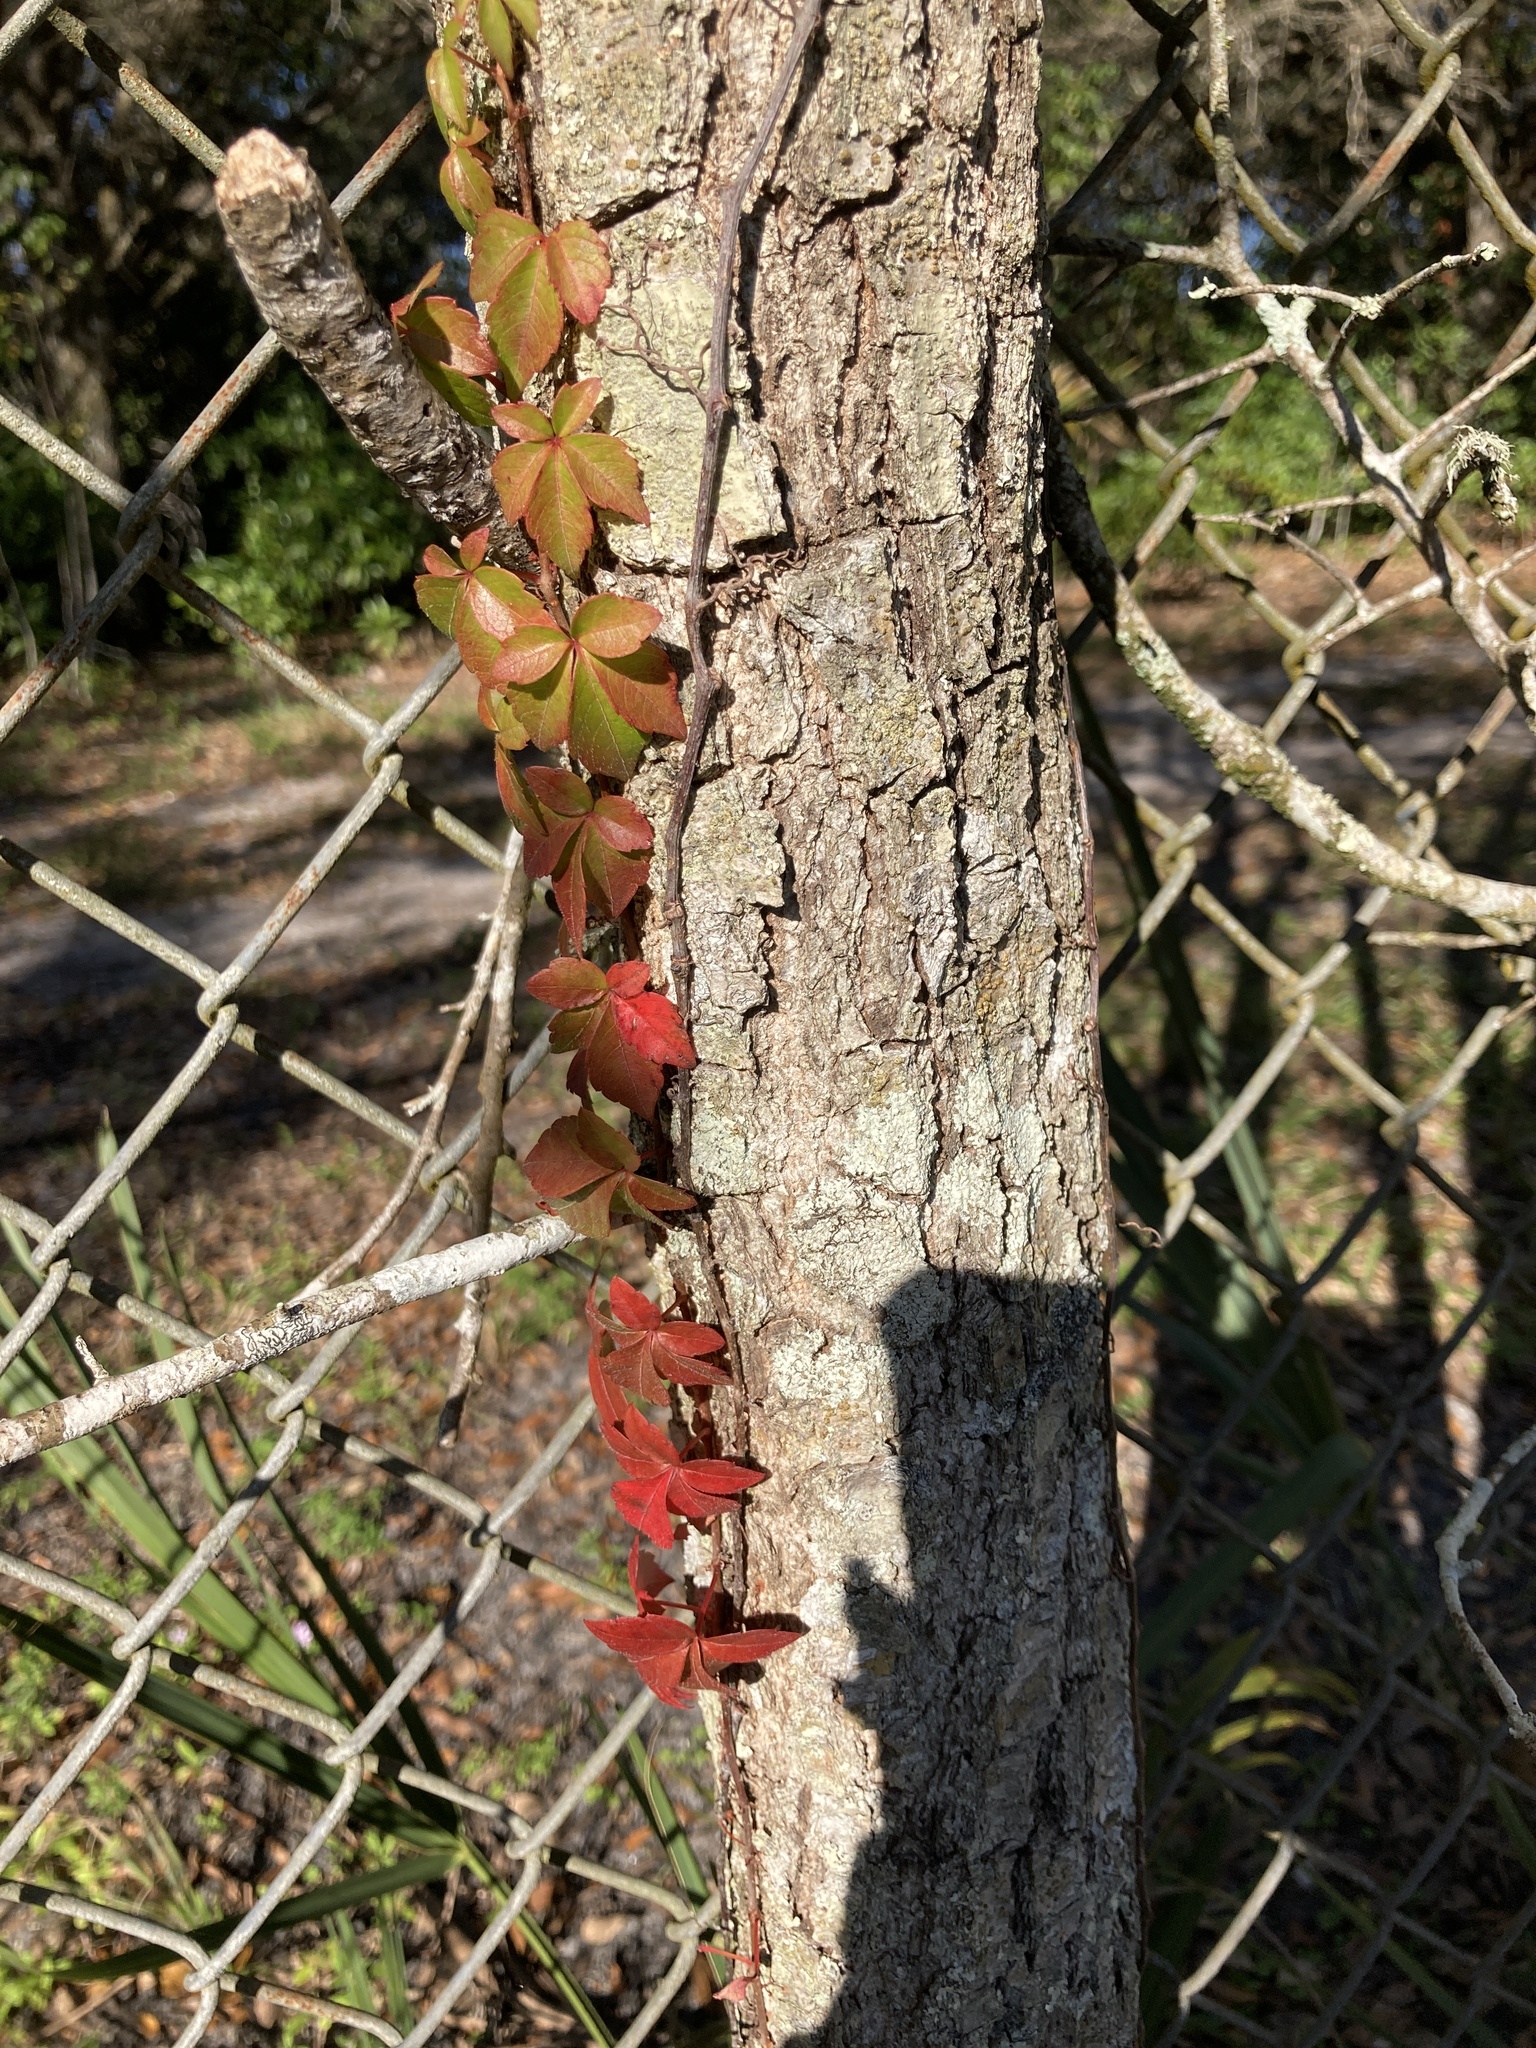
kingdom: Plantae
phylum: Tracheophyta
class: Magnoliopsida
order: Vitales
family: Vitaceae
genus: Parthenocissus
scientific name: Parthenocissus quinquefolia
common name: Virginia-creeper
